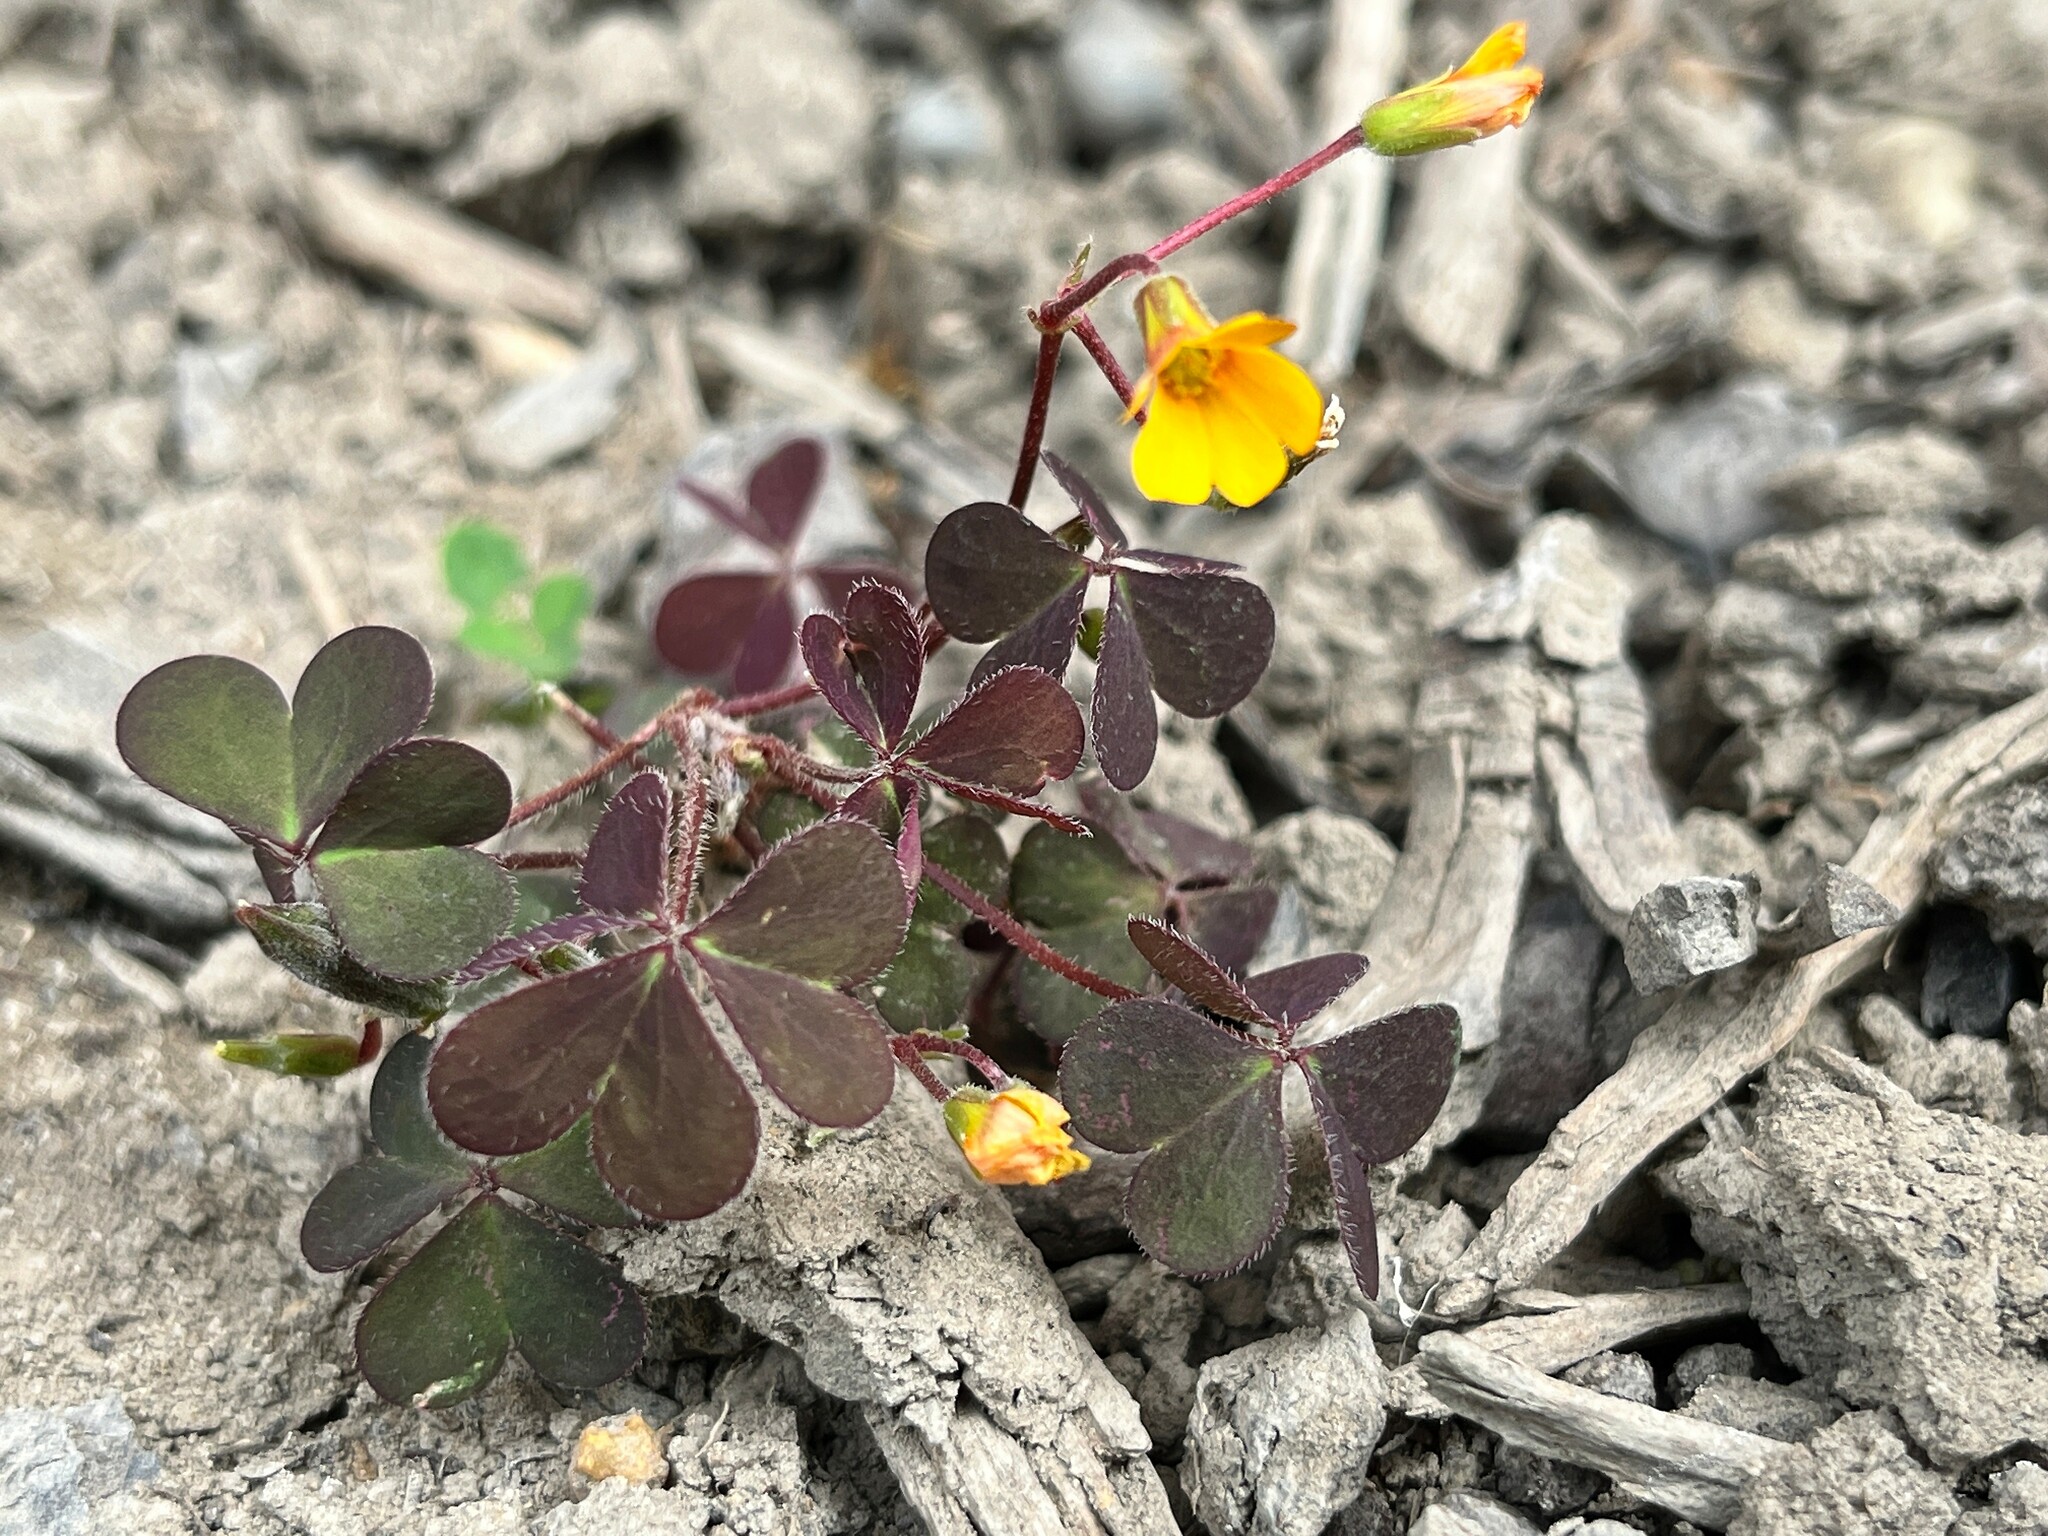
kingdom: Plantae
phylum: Tracheophyta
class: Magnoliopsida
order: Oxalidales
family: Oxalidaceae
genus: Oxalis
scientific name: Oxalis corniculata
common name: Procumbent yellow-sorrel
